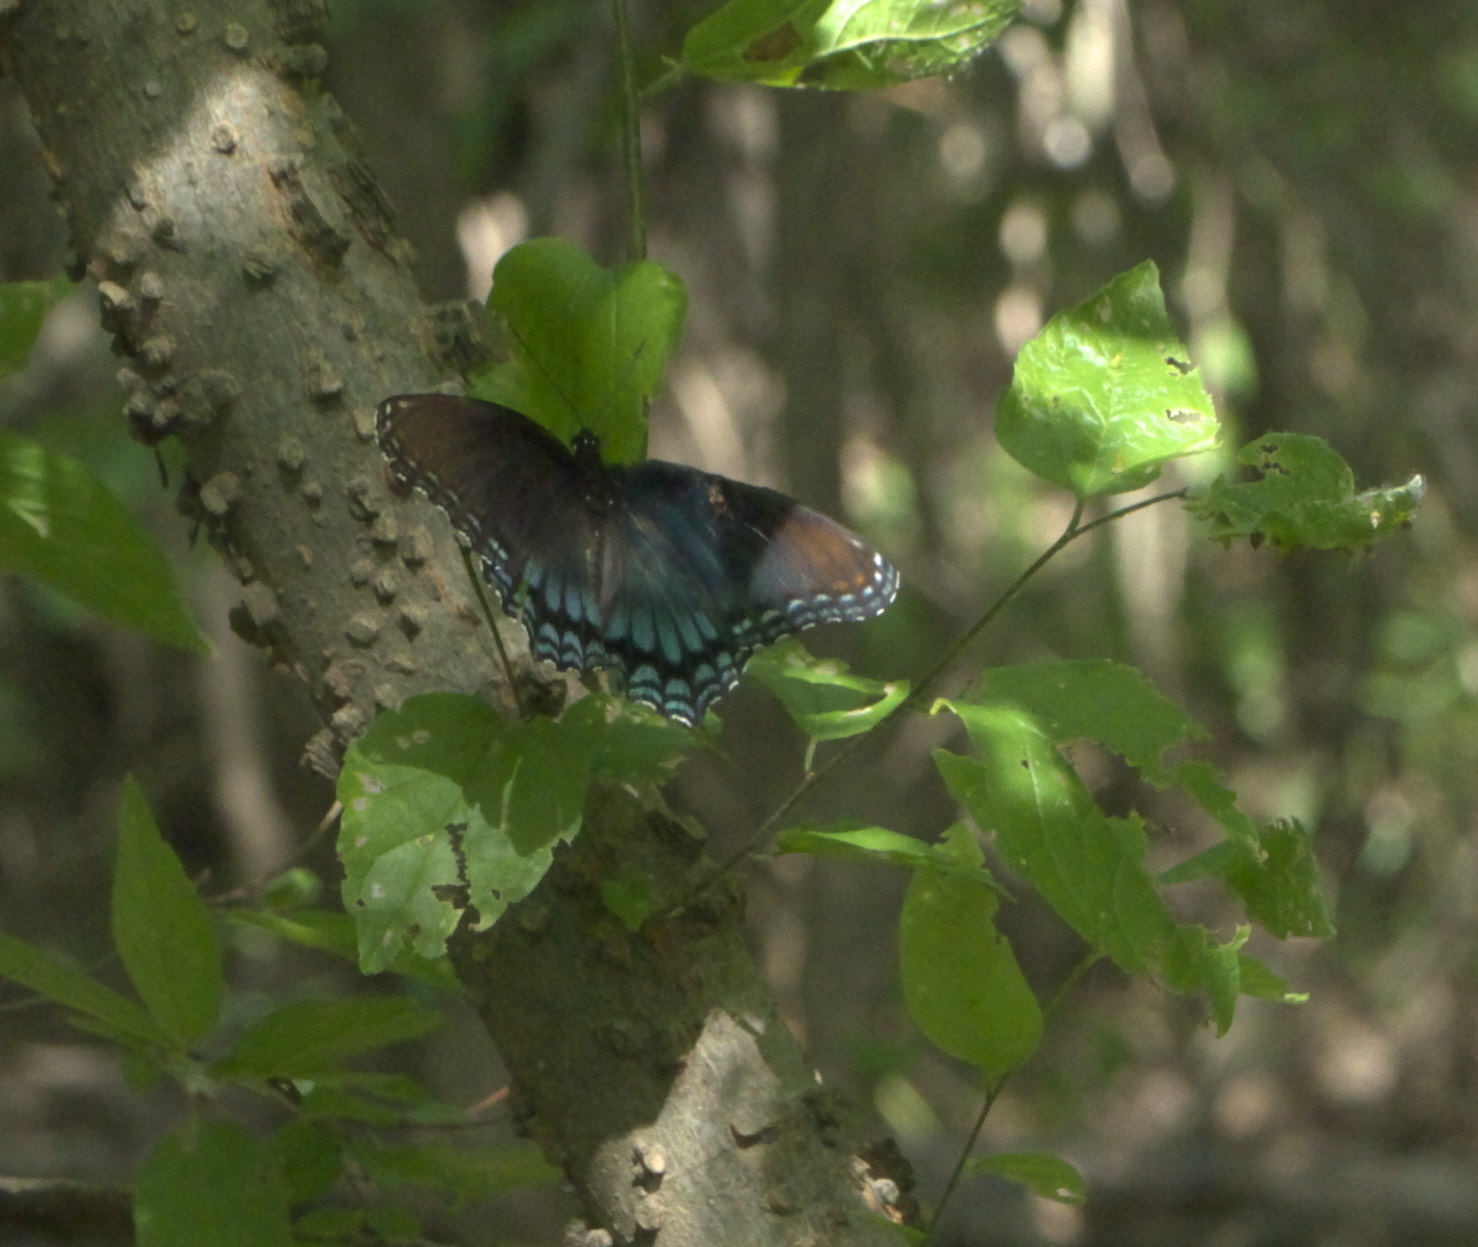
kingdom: Animalia
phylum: Arthropoda
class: Insecta
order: Lepidoptera
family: Nymphalidae
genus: Limenitis
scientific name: Limenitis astyanax
